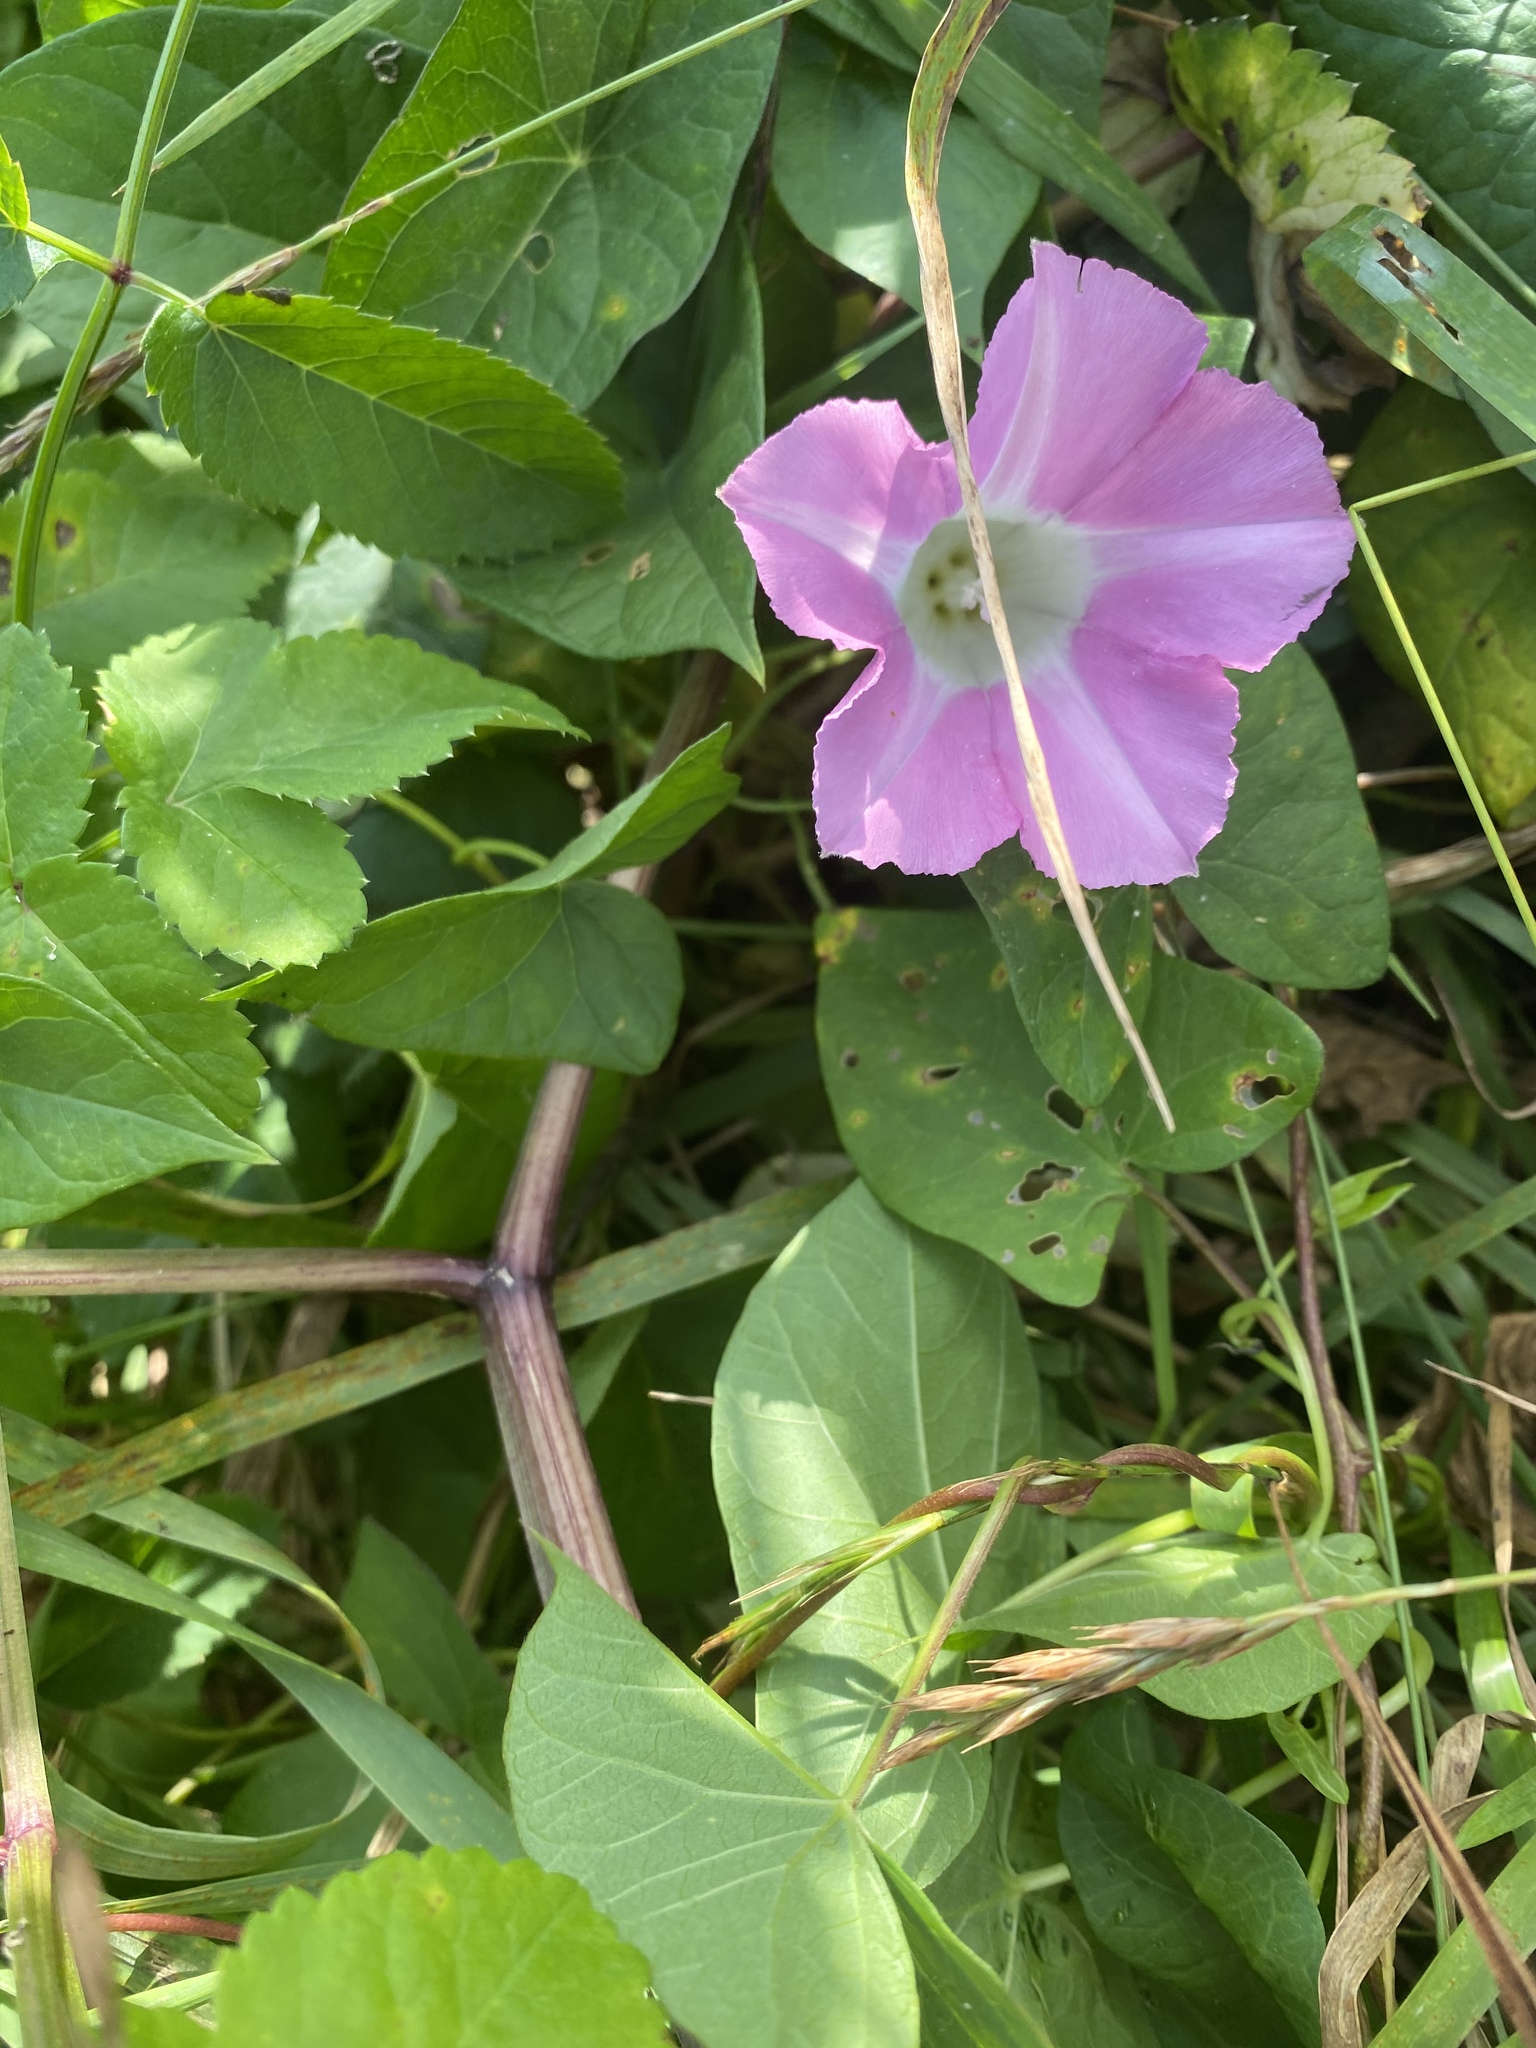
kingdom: Plantae
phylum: Tracheophyta
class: Magnoliopsida
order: Solanales
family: Convolvulaceae
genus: Calystegia
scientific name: Calystegia sepium
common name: Hedge bindweed
